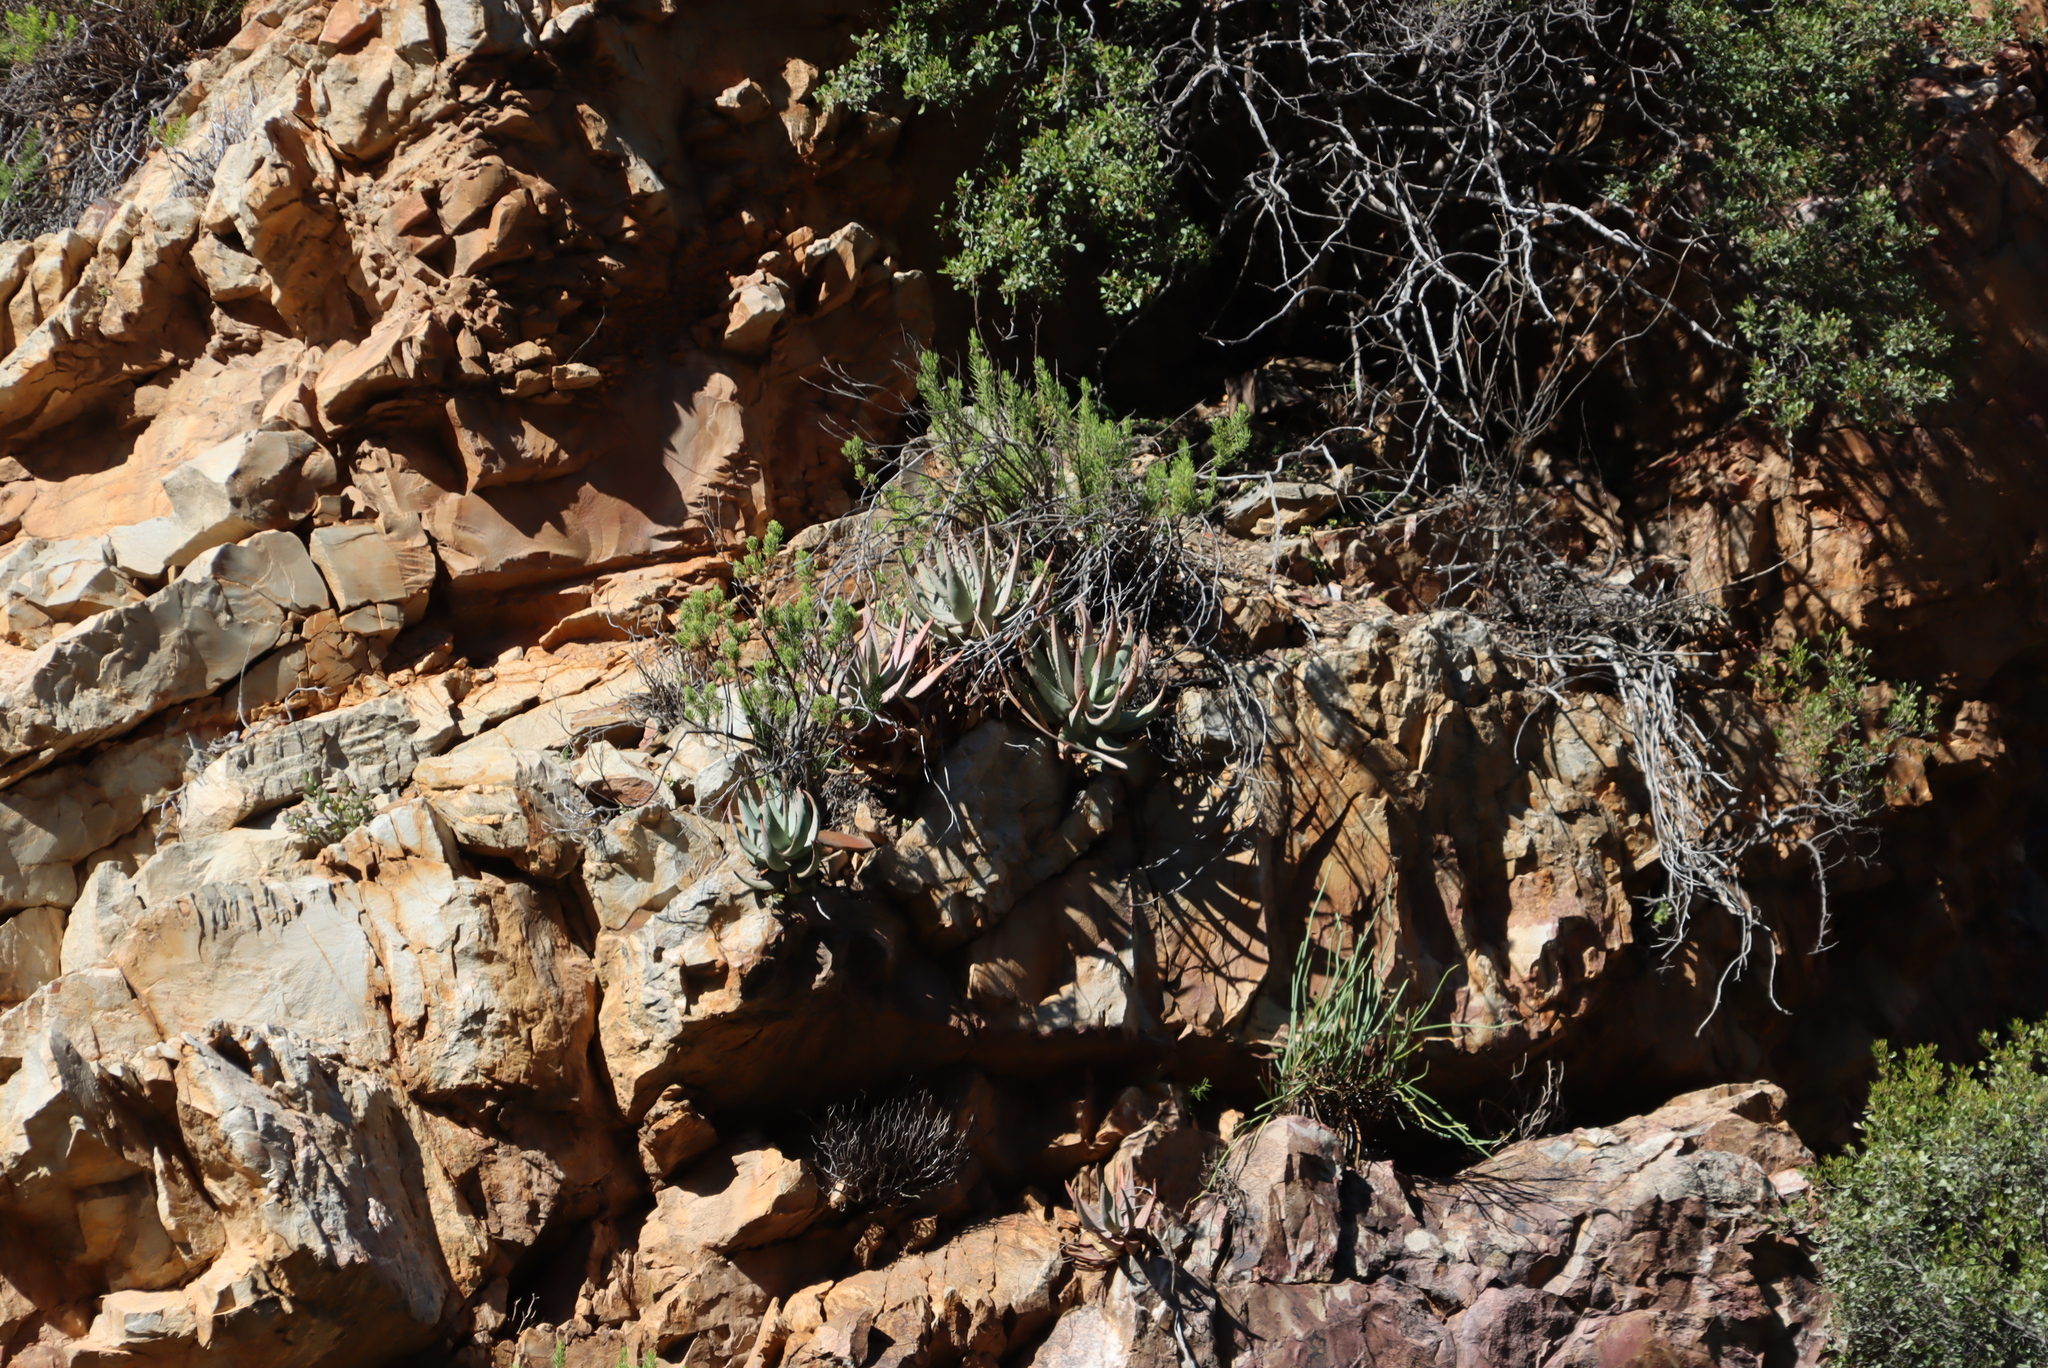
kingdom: Plantae
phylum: Tracheophyta
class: Liliopsida
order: Asparagales
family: Asphodelaceae
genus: Aloe
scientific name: Aloe comptonii
